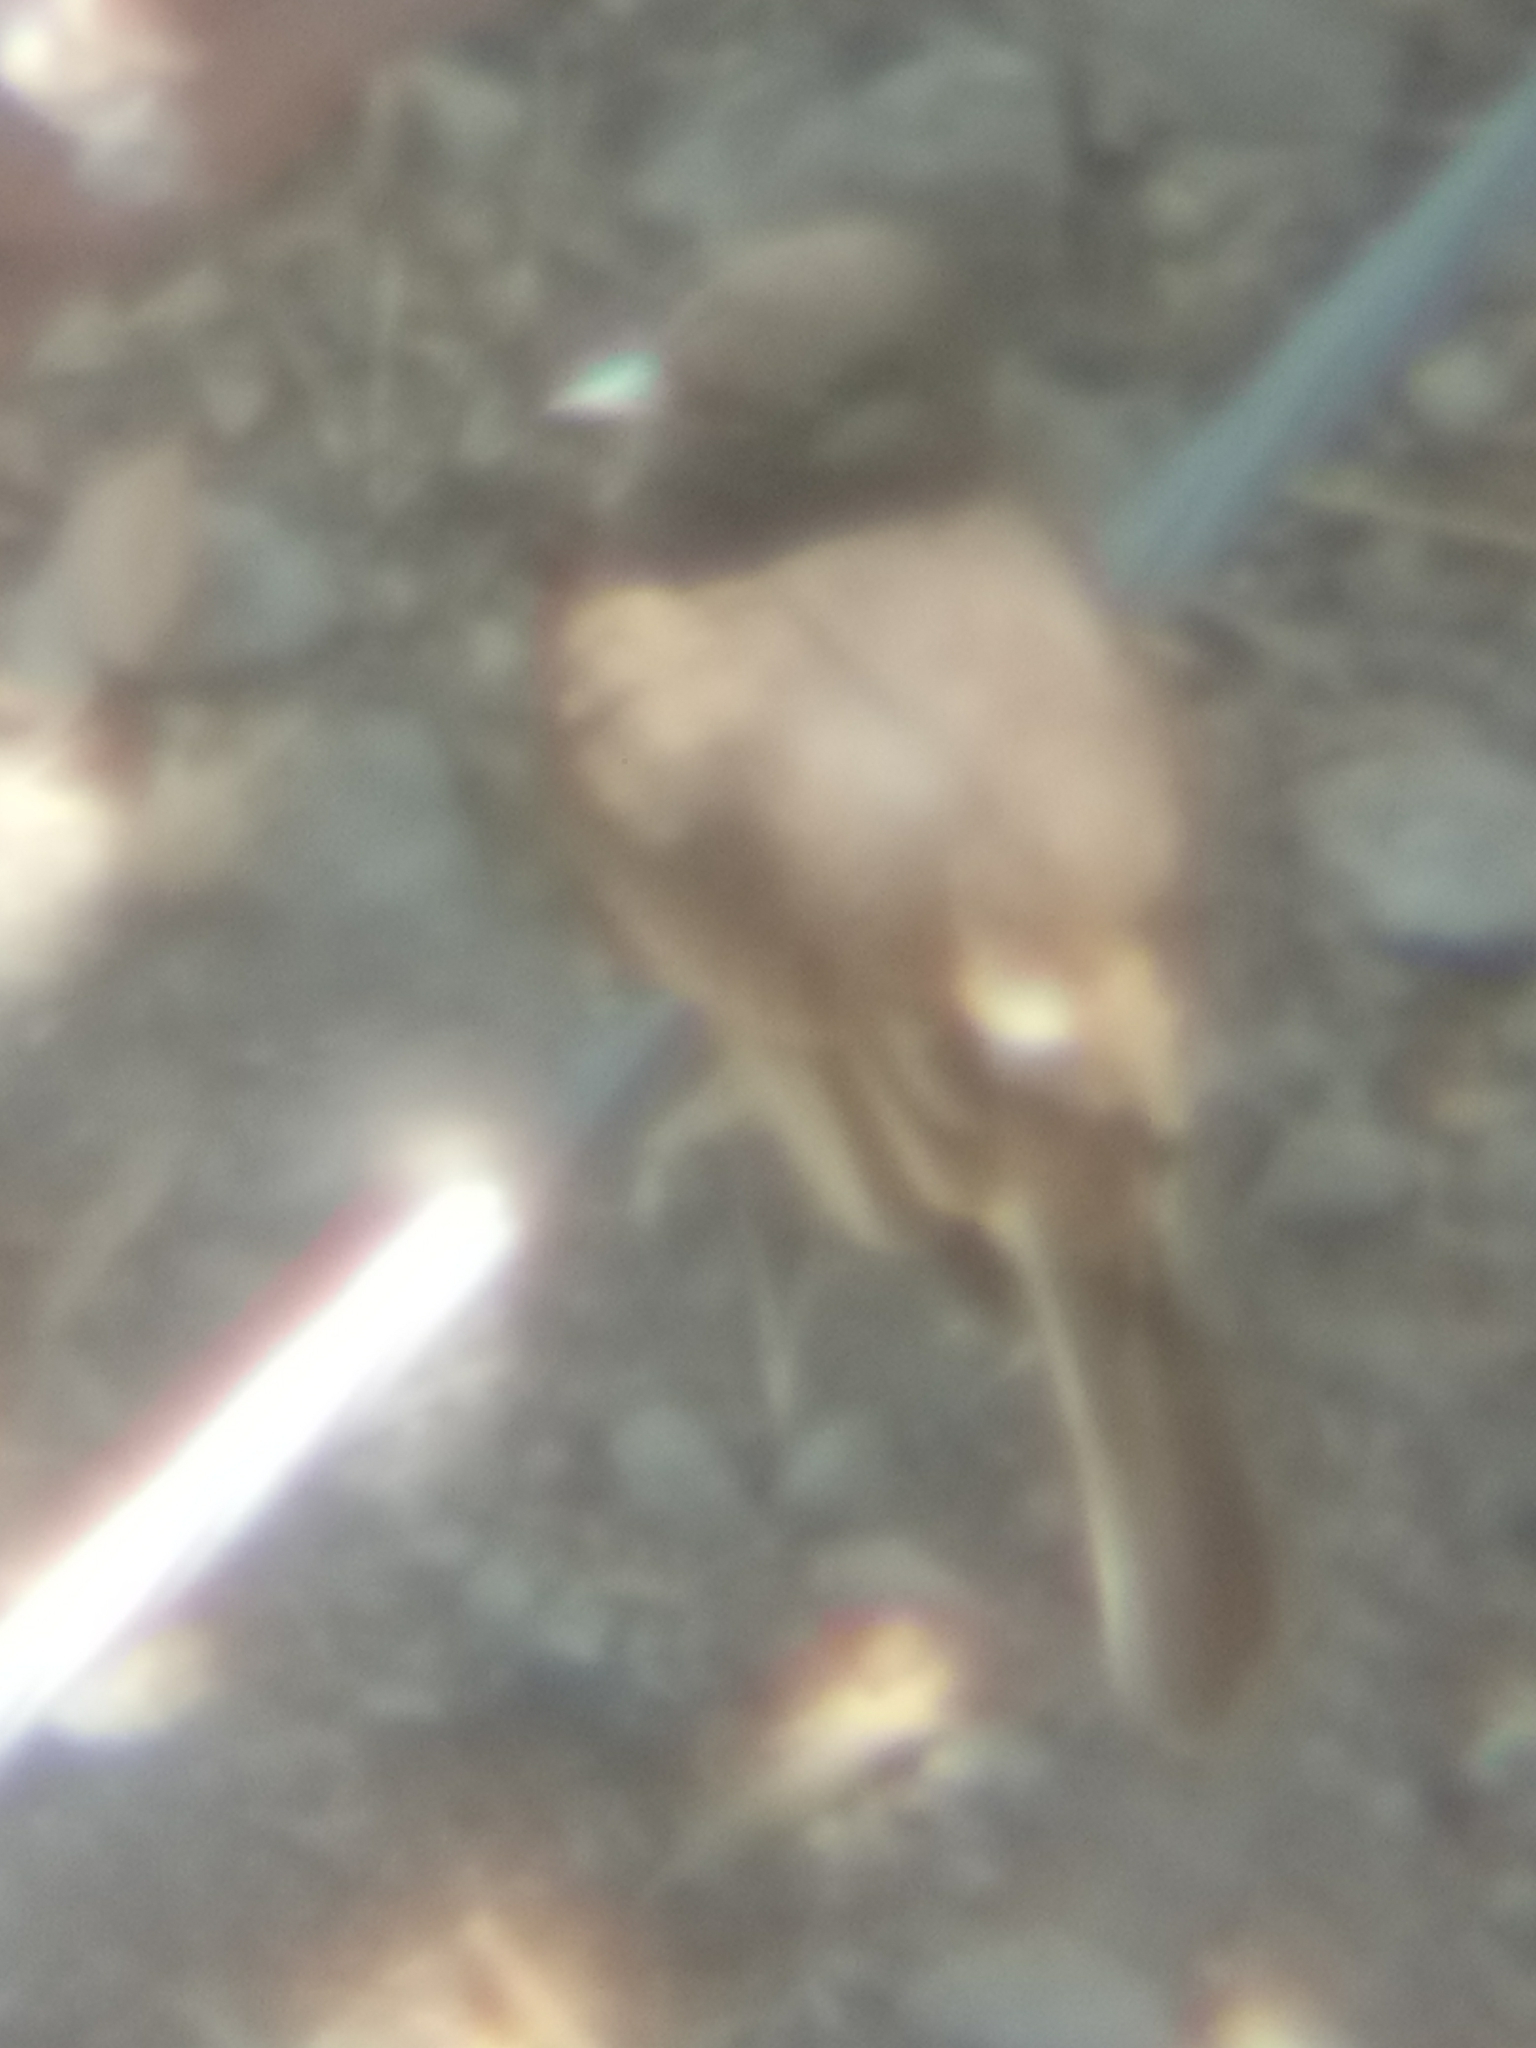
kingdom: Animalia
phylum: Chordata
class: Aves
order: Passeriformes
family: Tyrannidae
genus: Sayornis
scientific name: Sayornis nigricans
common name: Black phoebe
